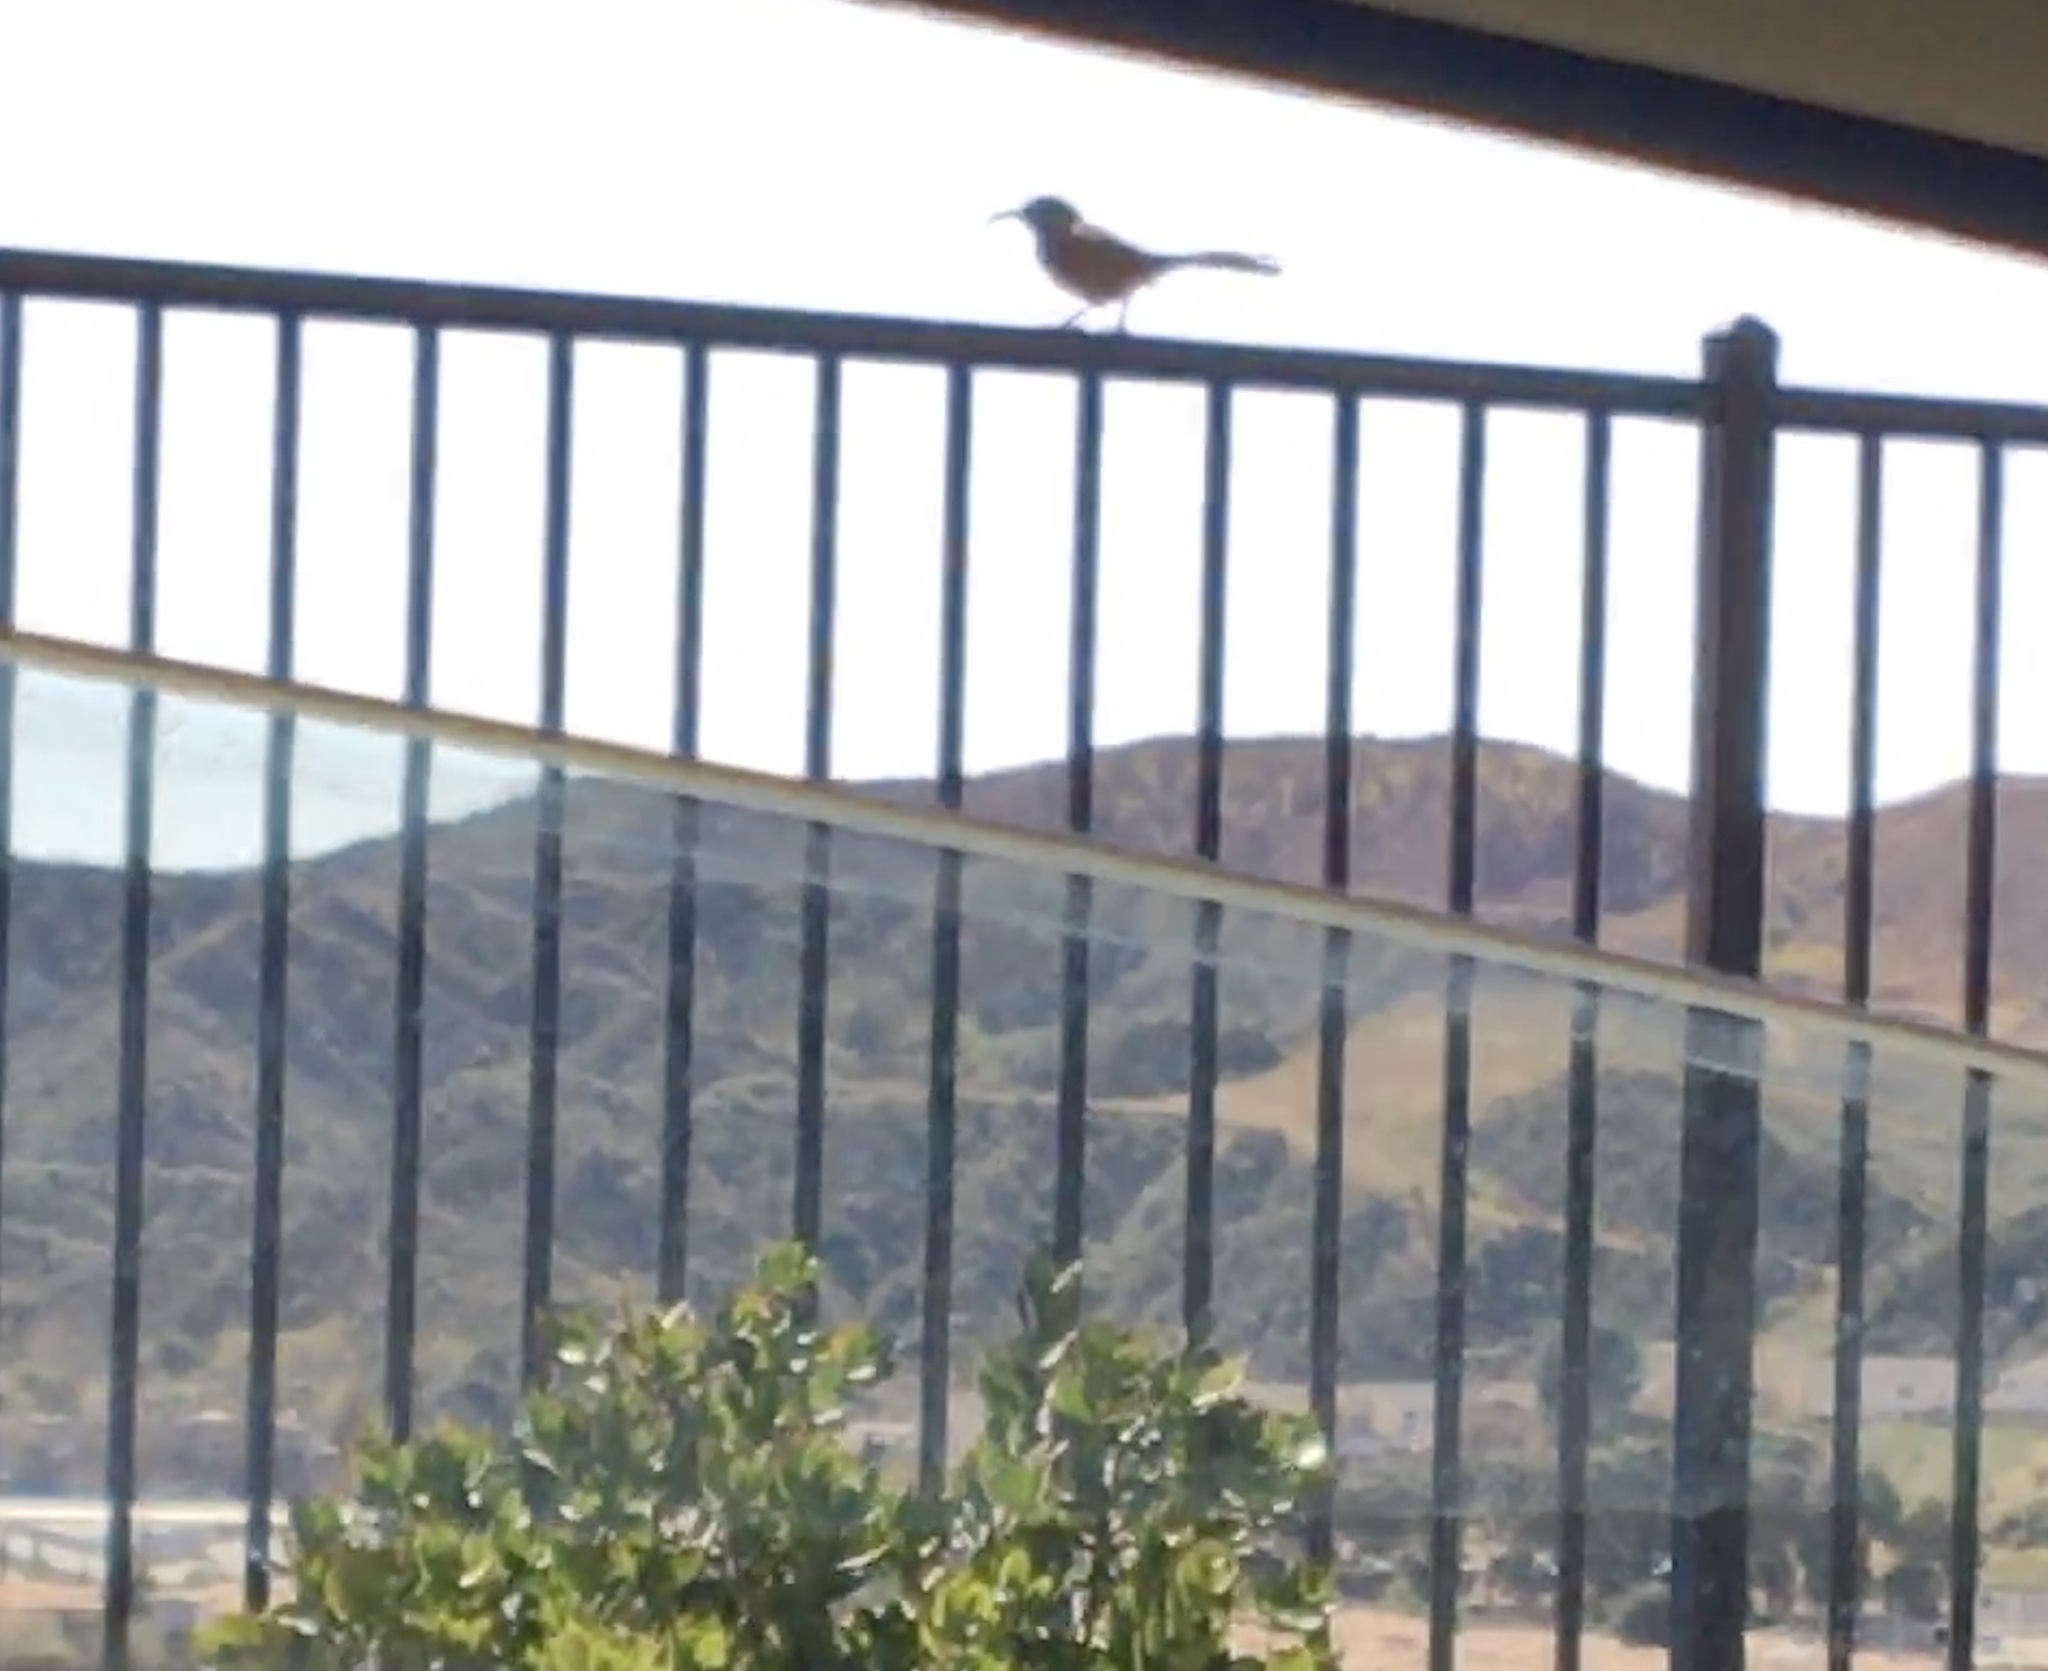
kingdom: Animalia
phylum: Chordata
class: Aves
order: Passeriformes
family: Mimidae
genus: Toxostoma
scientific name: Toxostoma redivivum
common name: California thrasher
